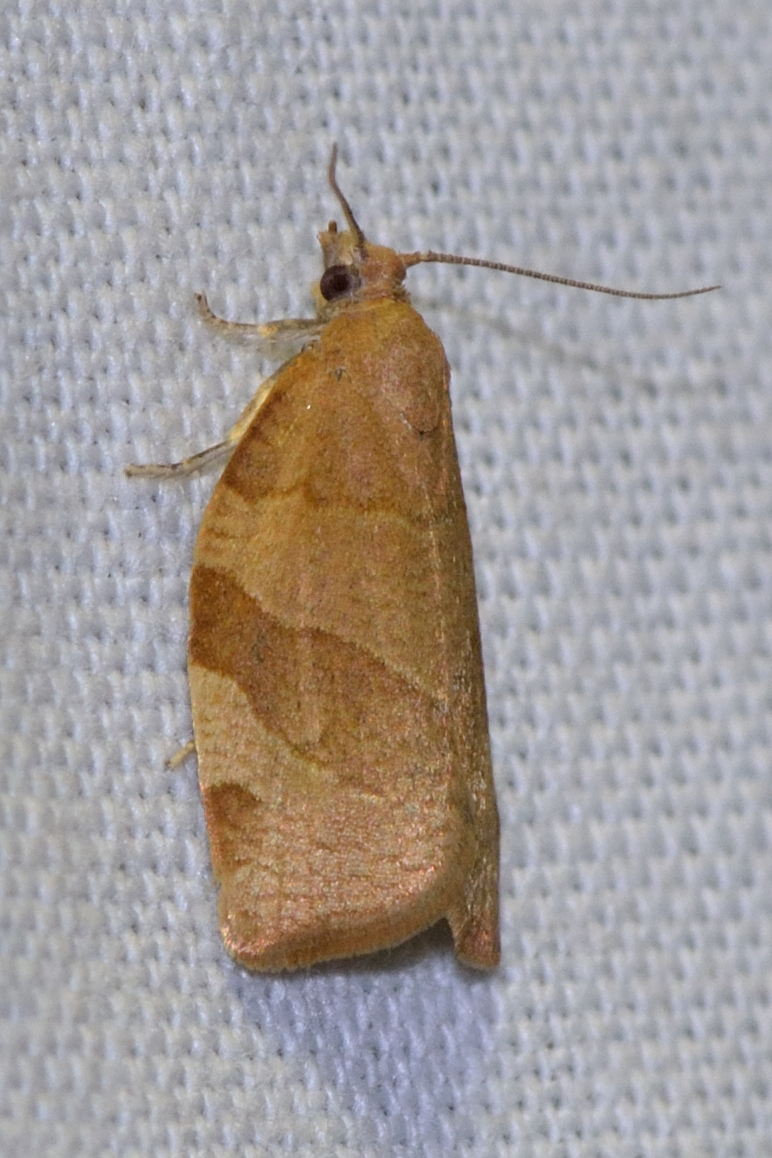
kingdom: Animalia
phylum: Arthropoda
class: Insecta
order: Lepidoptera
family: Tortricidae
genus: Pandemis
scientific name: Pandemis cerasana
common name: Barred fruit-tree tortrix
